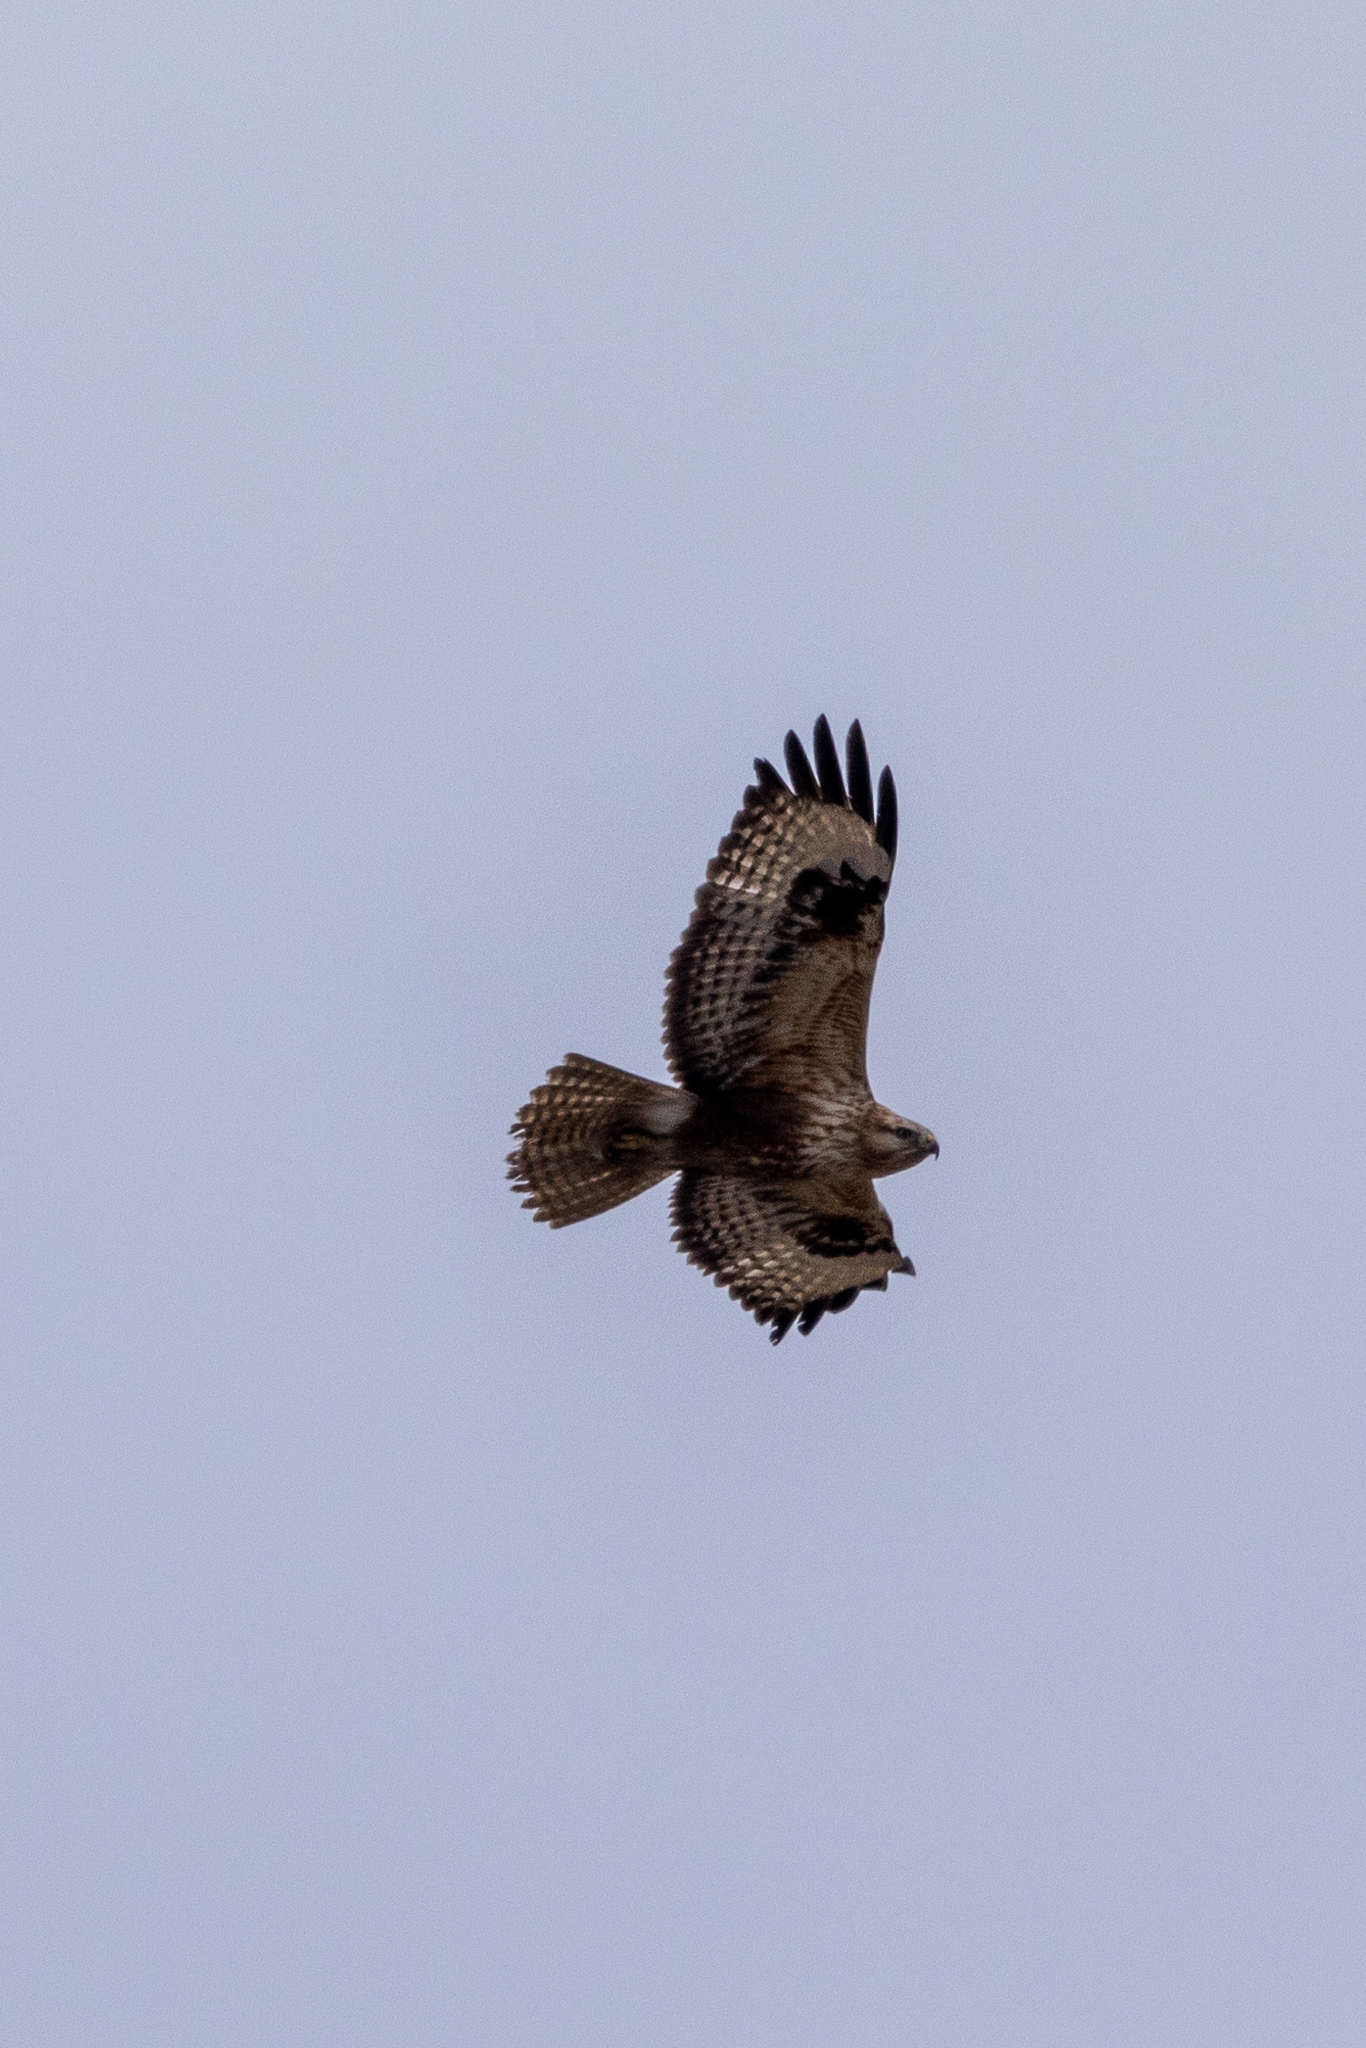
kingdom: Animalia
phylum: Chordata
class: Aves
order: Accipitriformes
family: Accipitridae
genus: Buteo
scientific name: Buteo rufinus
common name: Long-legged buzzard
